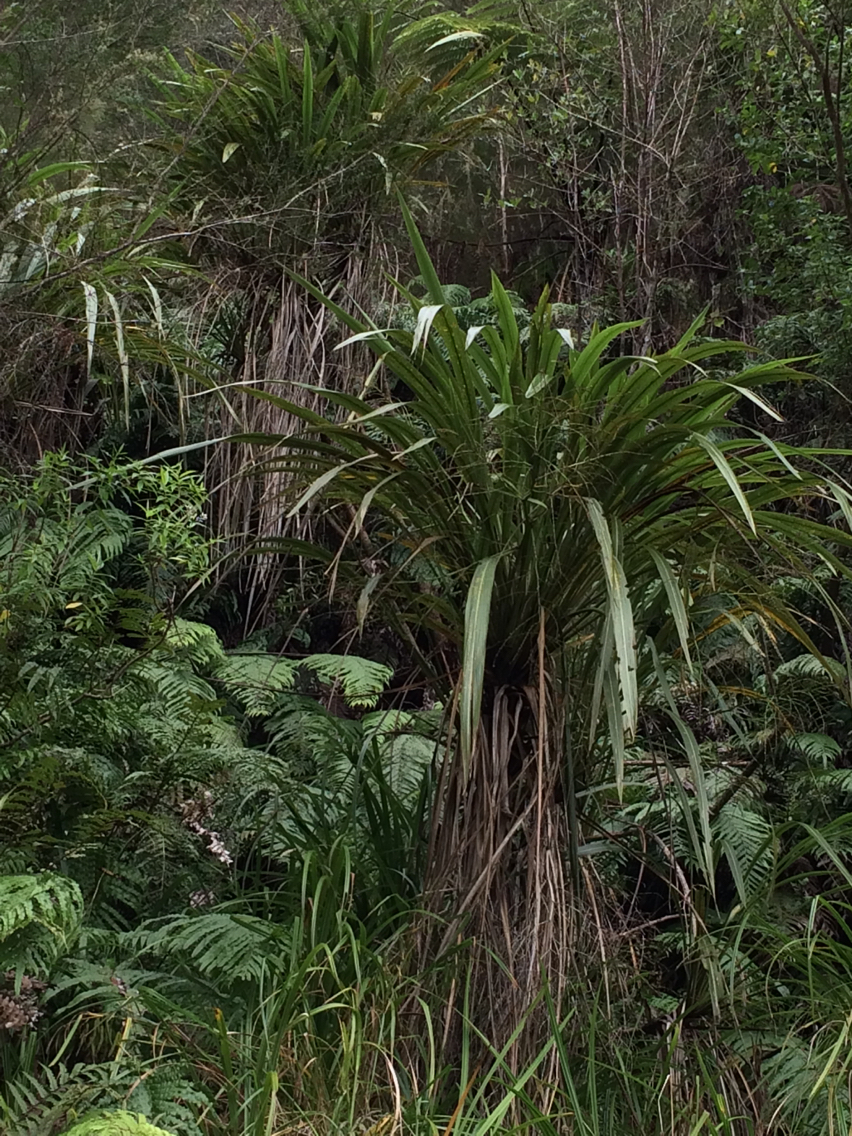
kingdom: Plantae
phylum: Tracheophyta
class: Liliopsida
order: Asparagales
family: Asparagaceae
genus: Cordyline
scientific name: Cordyline banksii
